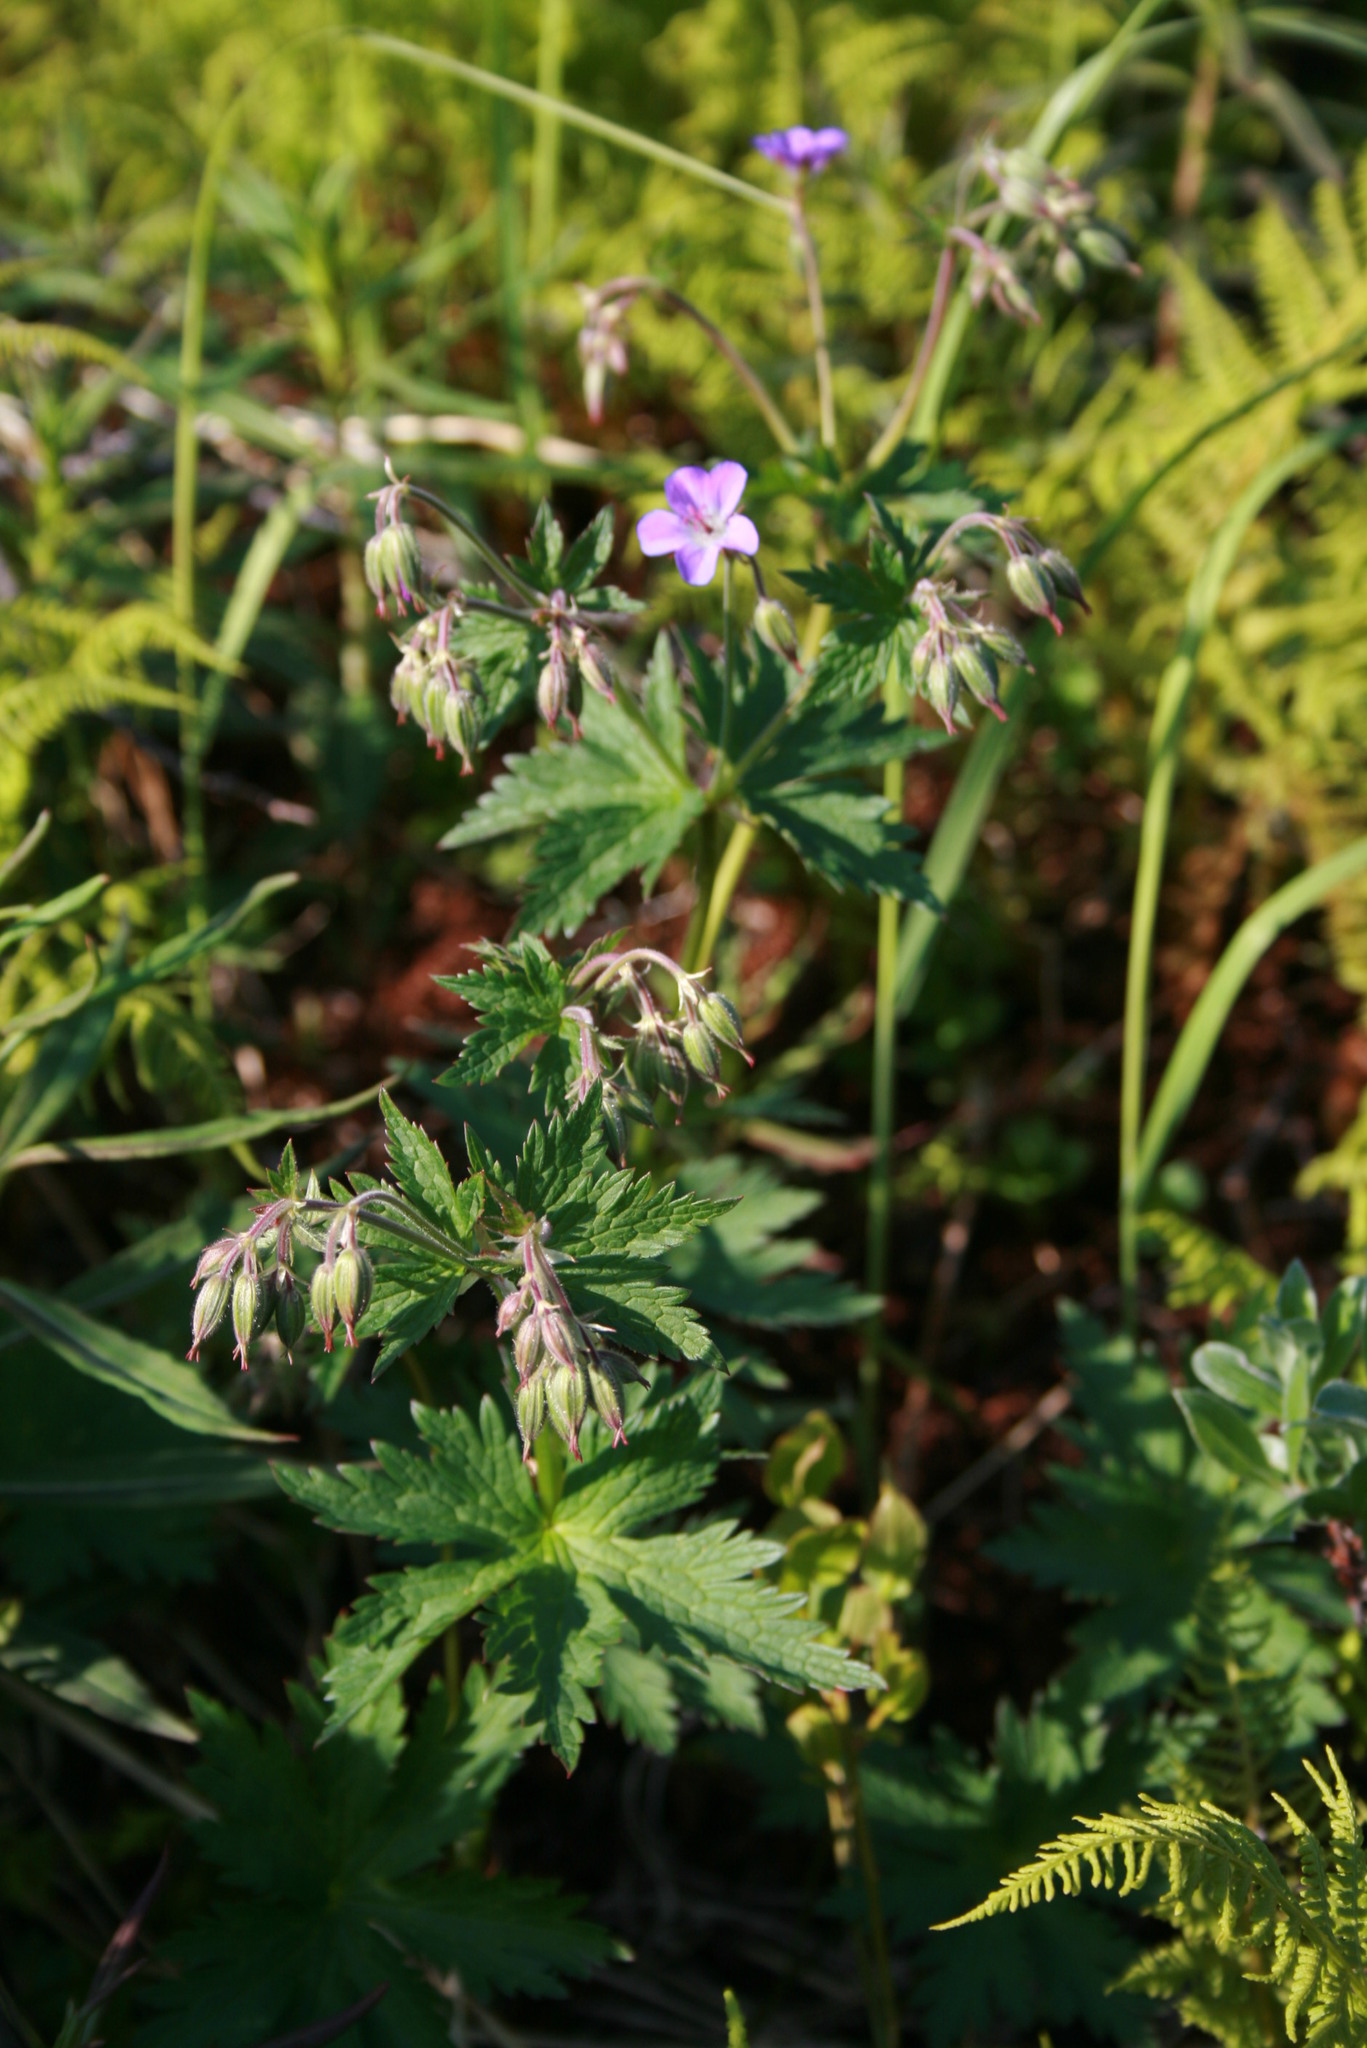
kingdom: Plantae
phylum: Tracheophyta
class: Magnoliopsida
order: Geraniales
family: Geraniaceae
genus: Geranium
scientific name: Geranium sylvaticum
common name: Wood crane's-bill
